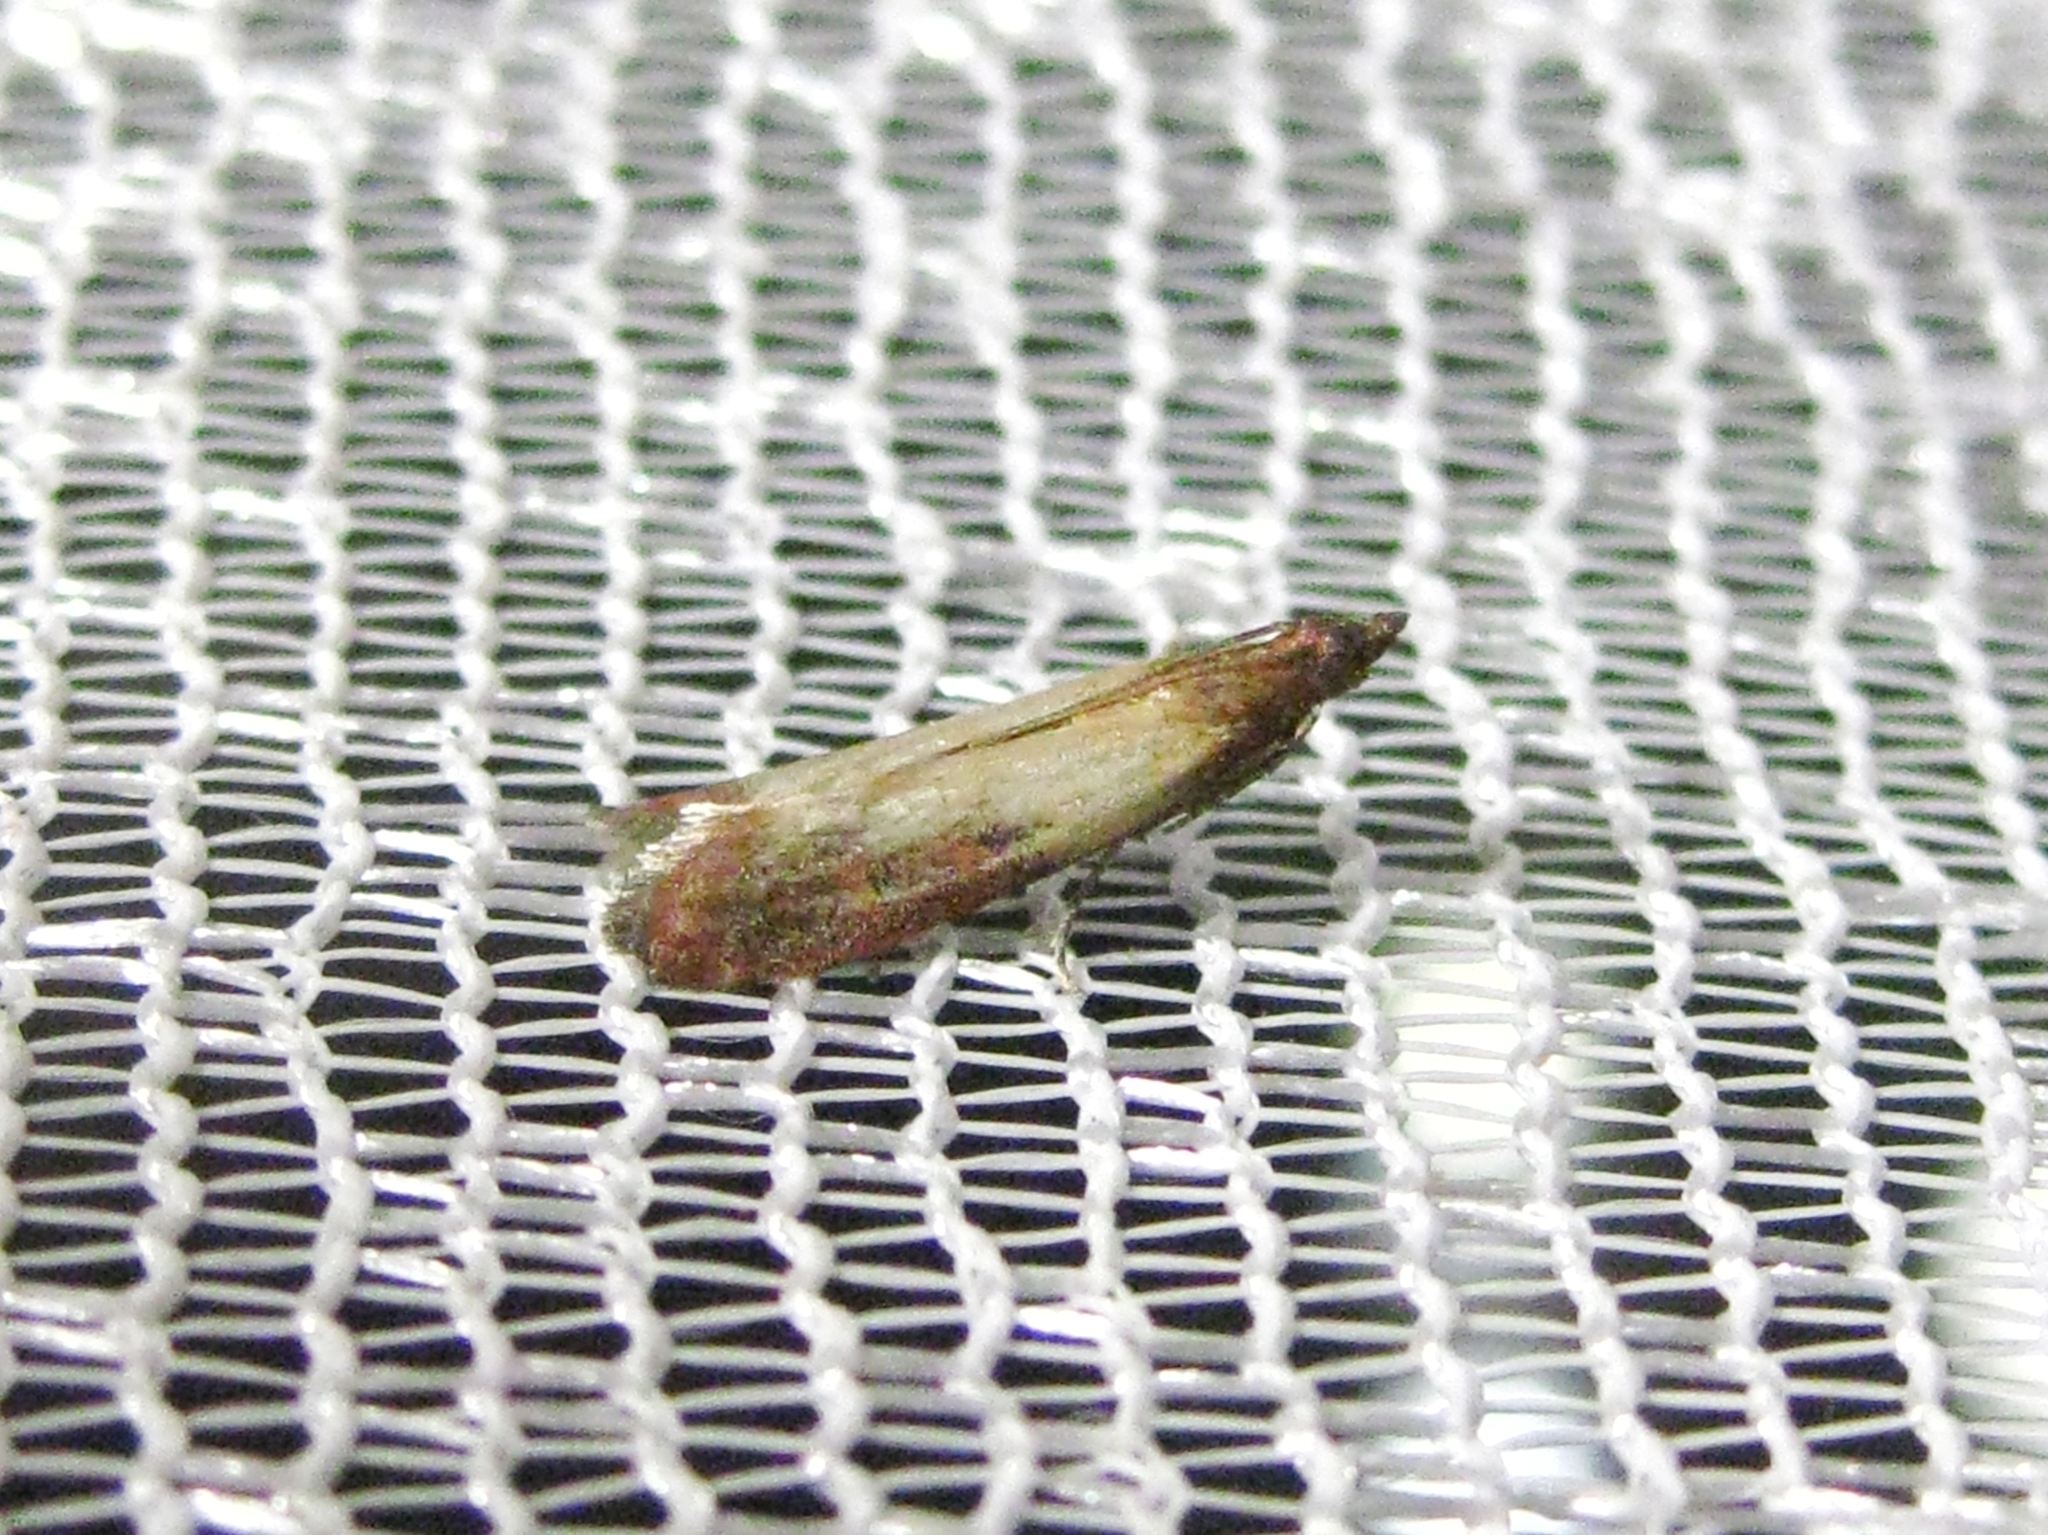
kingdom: Animalia
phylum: Arthropoda
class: Insecta
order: Lepidoptera
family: Pyralidae
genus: Plodia
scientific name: Plodia interpunctella
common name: Indian meal moth
